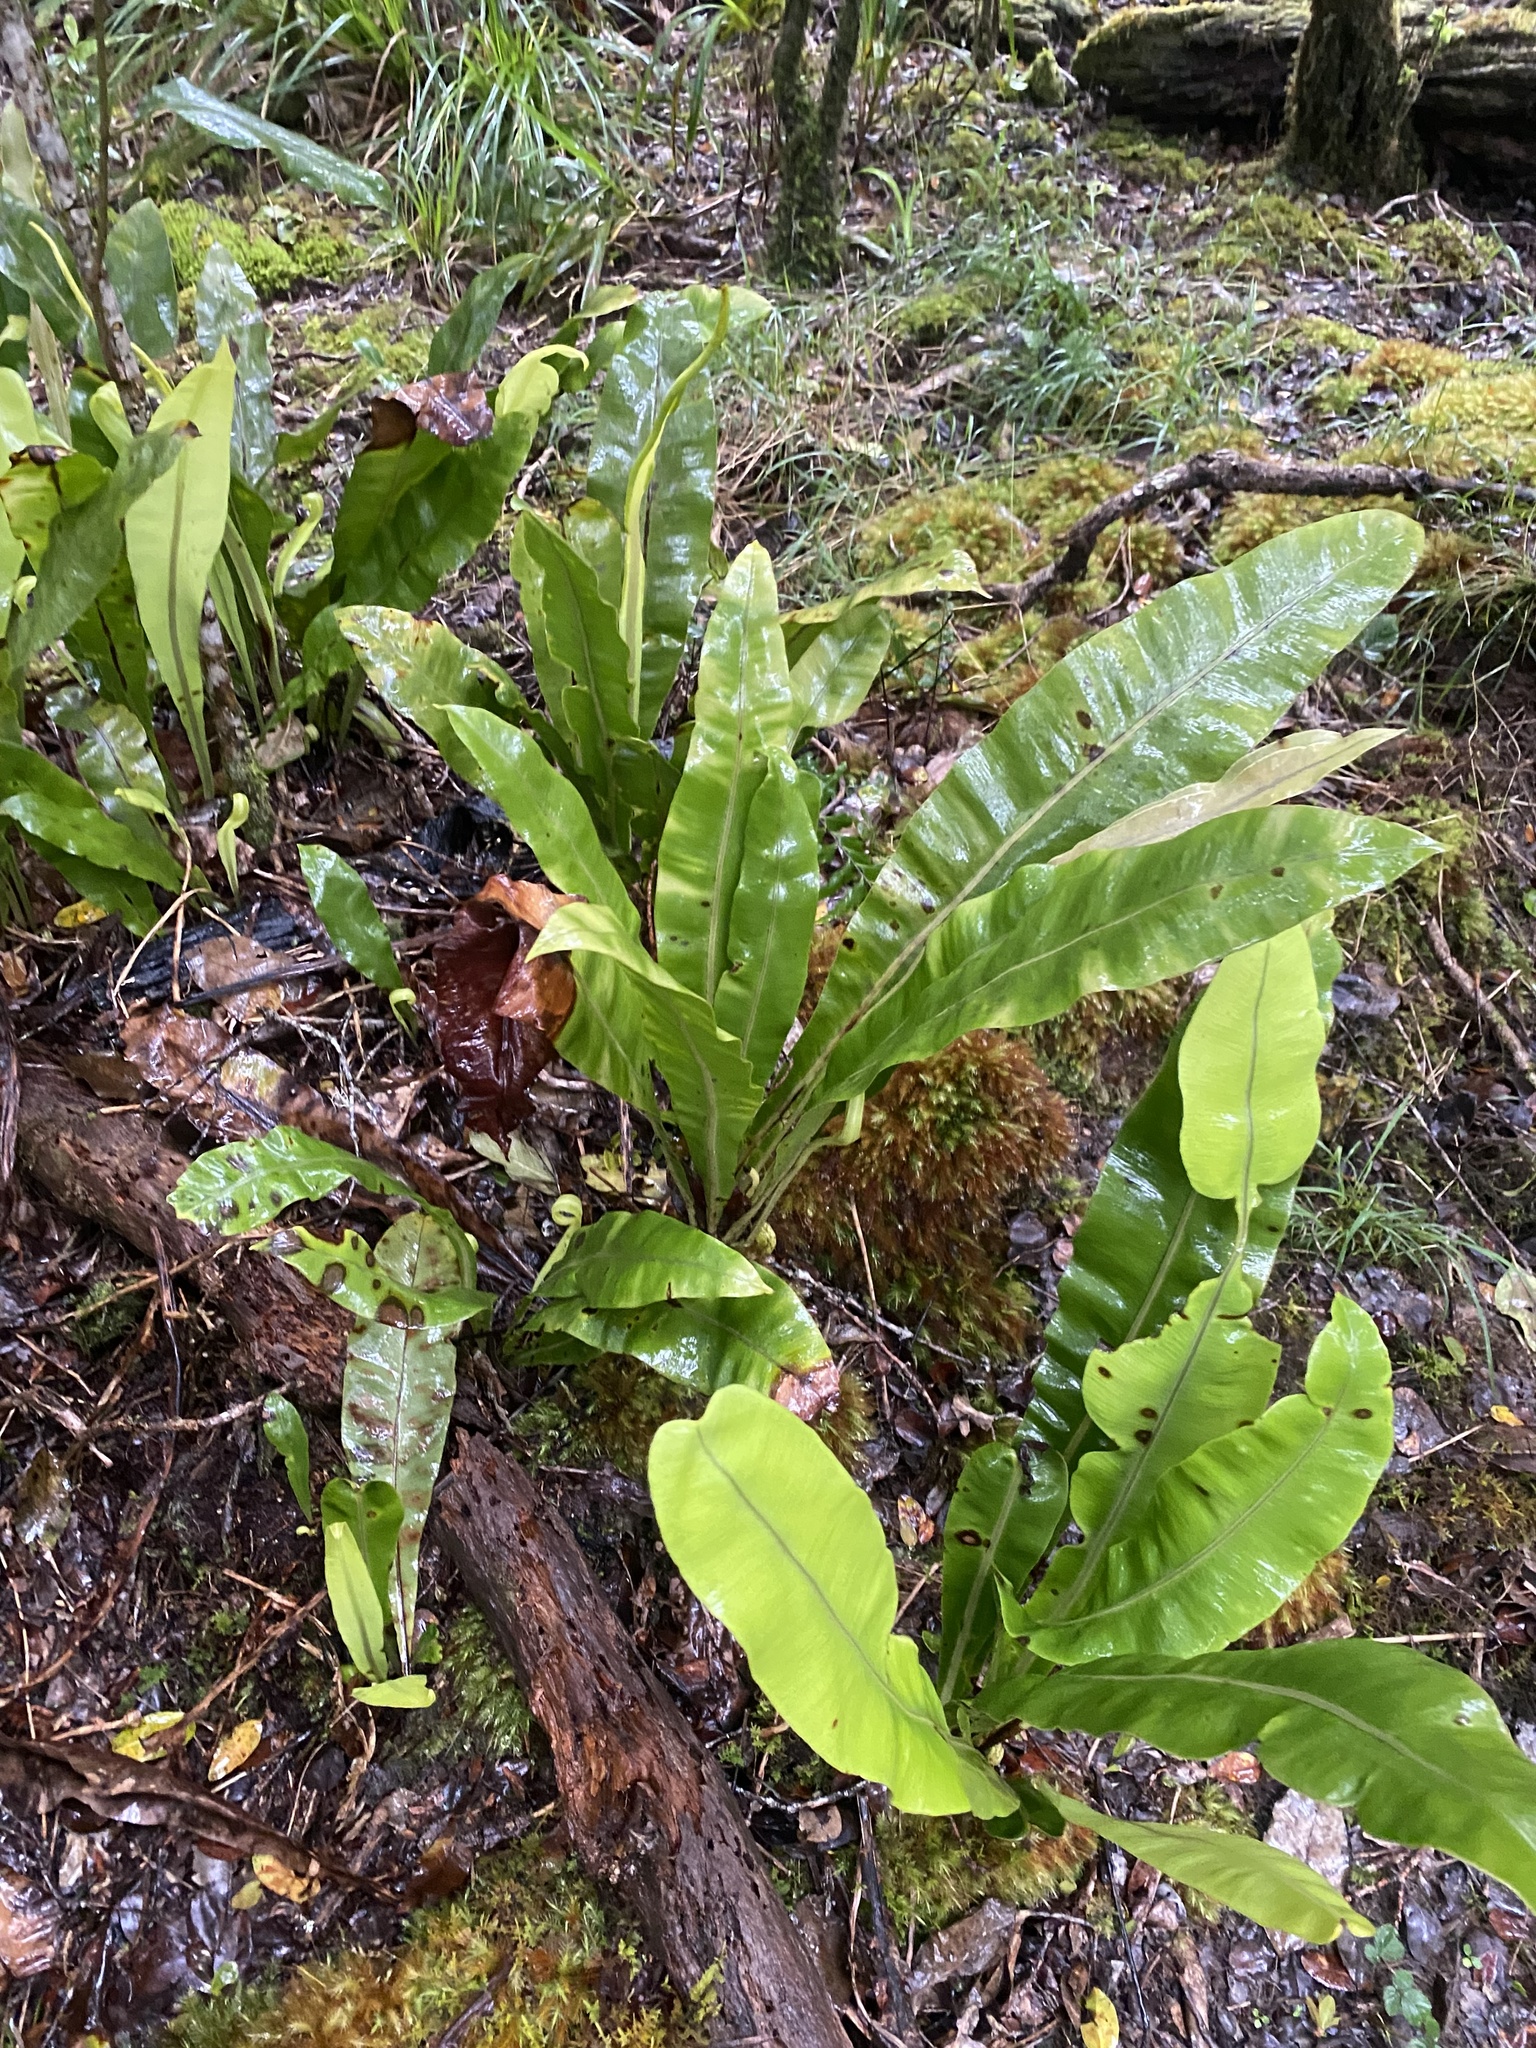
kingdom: Plantae
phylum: Tracheophyta
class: Polypodiopsida
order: Polypodiales
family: Dryopteridaceae
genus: Elaphoglossum
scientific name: Elaphoglossum crassicaule
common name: Maui's paddle
